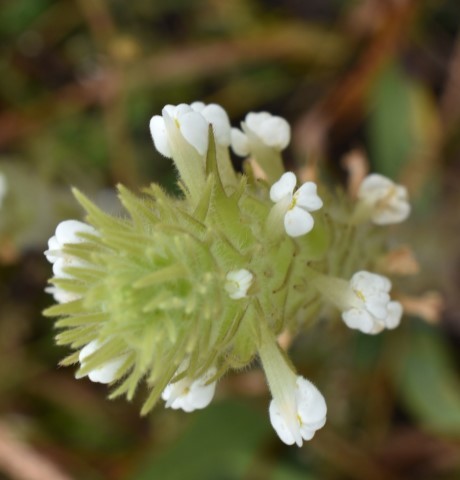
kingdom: Plantae
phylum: Tracheophyta
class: Magnoliopsida
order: Lamiales
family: Orobanchaceae
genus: Castilleja
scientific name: Castilleja tenuis
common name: Hairy indian paintbrush
